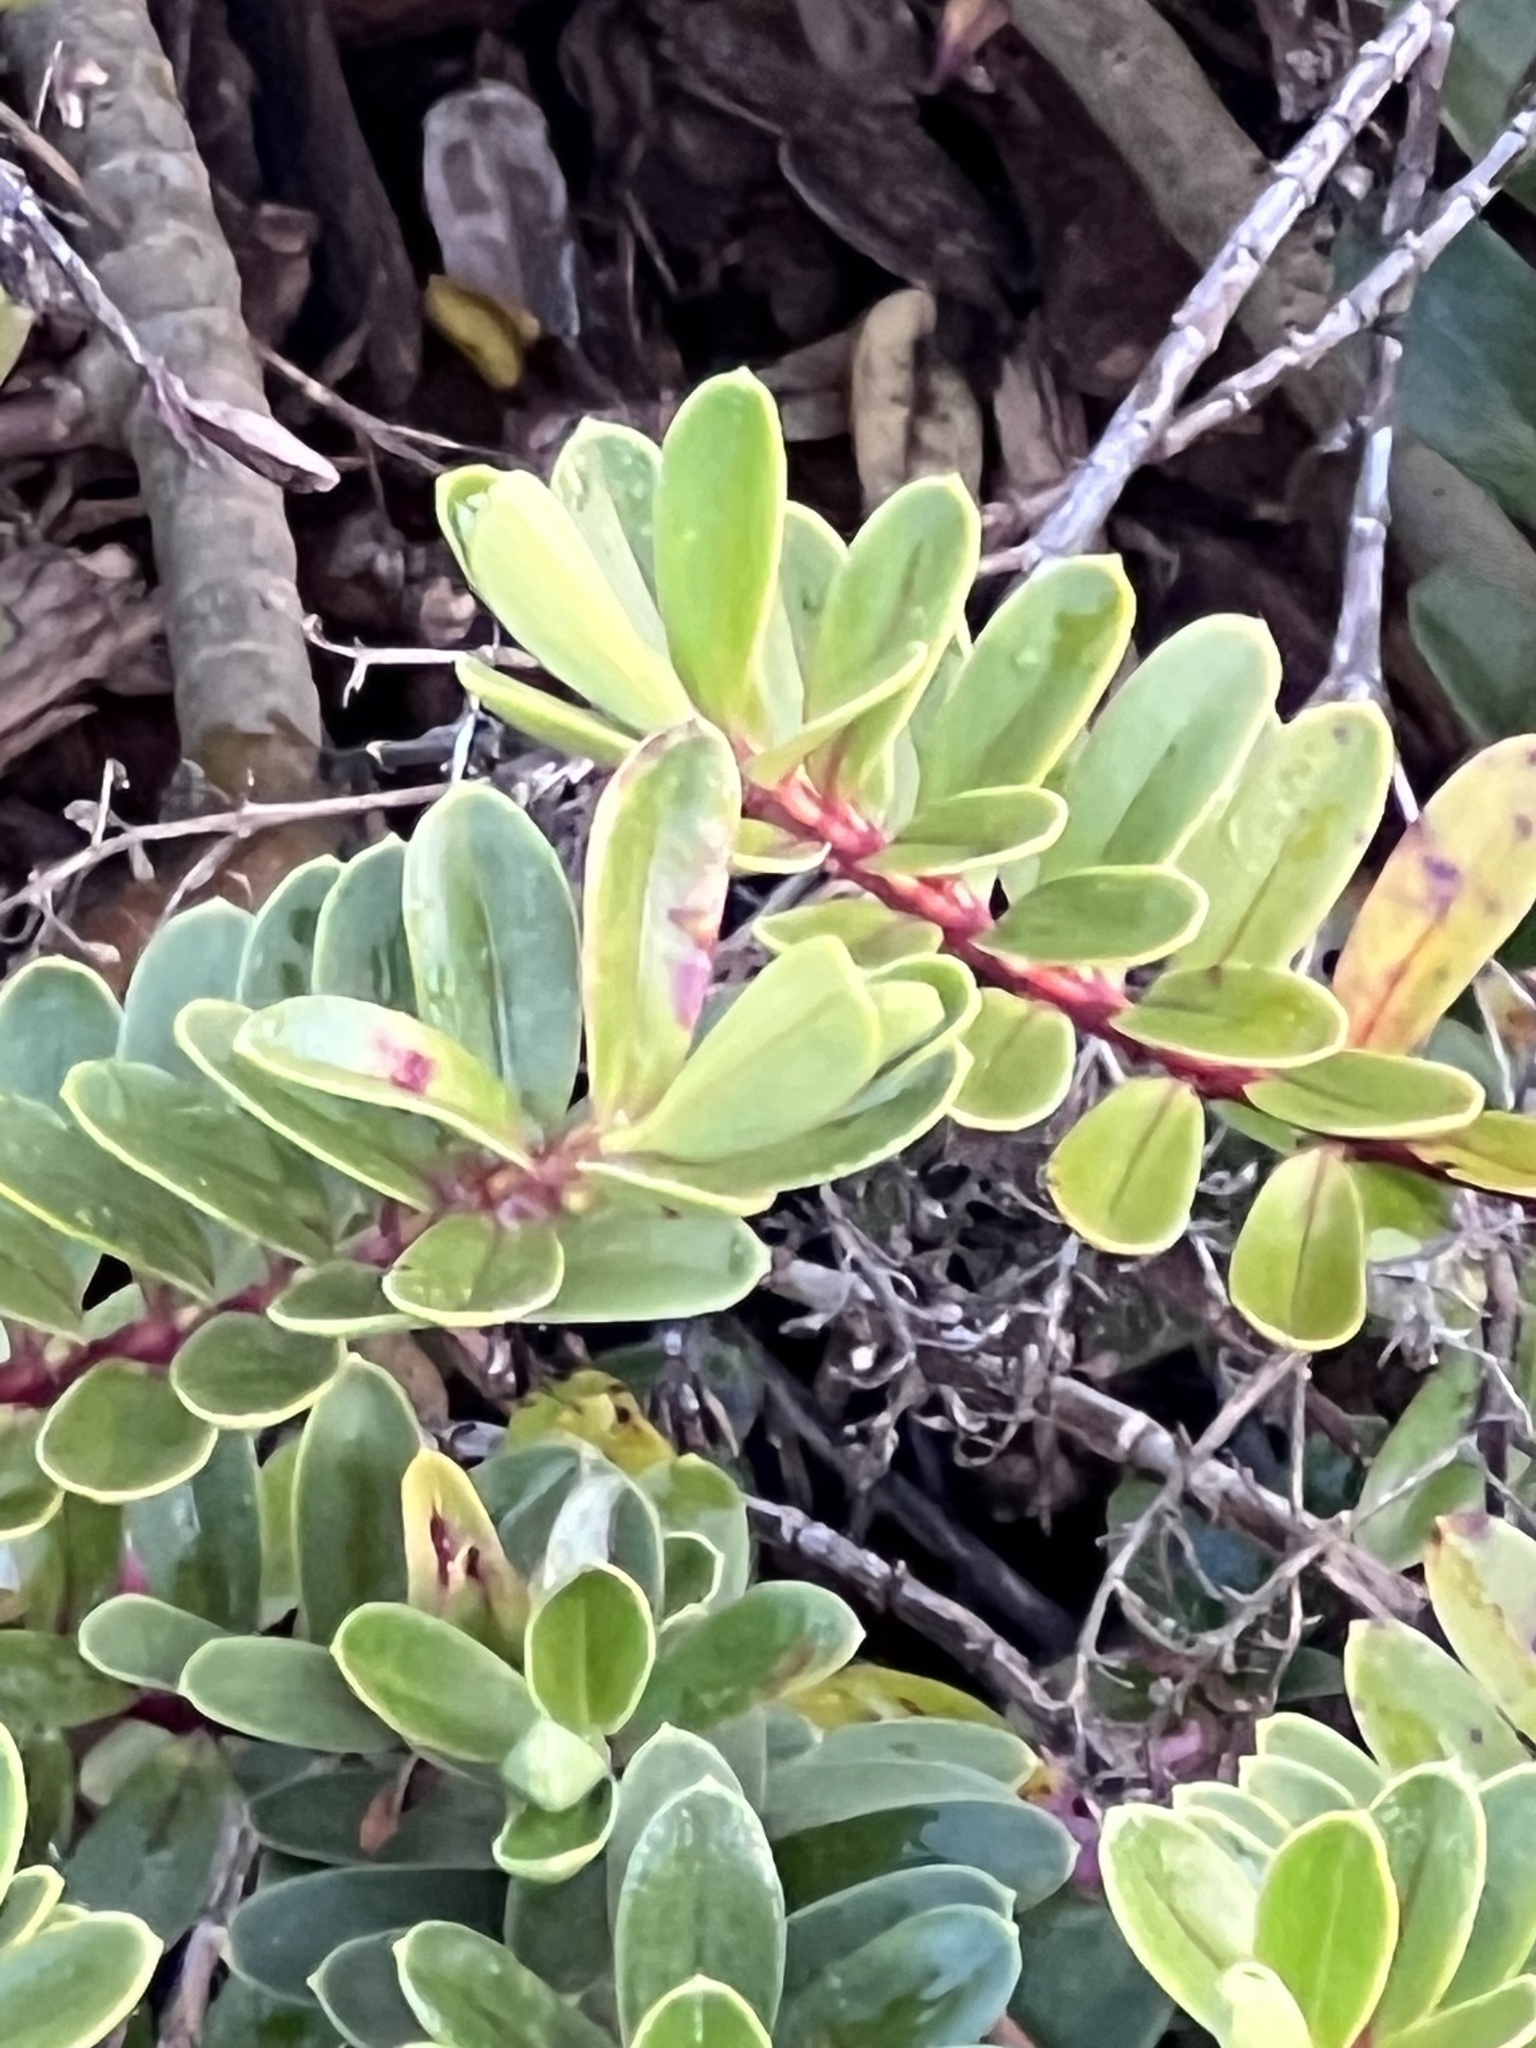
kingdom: Plantae
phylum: Tracheophyta
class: Magnoliopsida
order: Celastrales
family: Celastraceae
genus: Paxistima
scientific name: Paxistima myrsinites
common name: Mountain-lover
